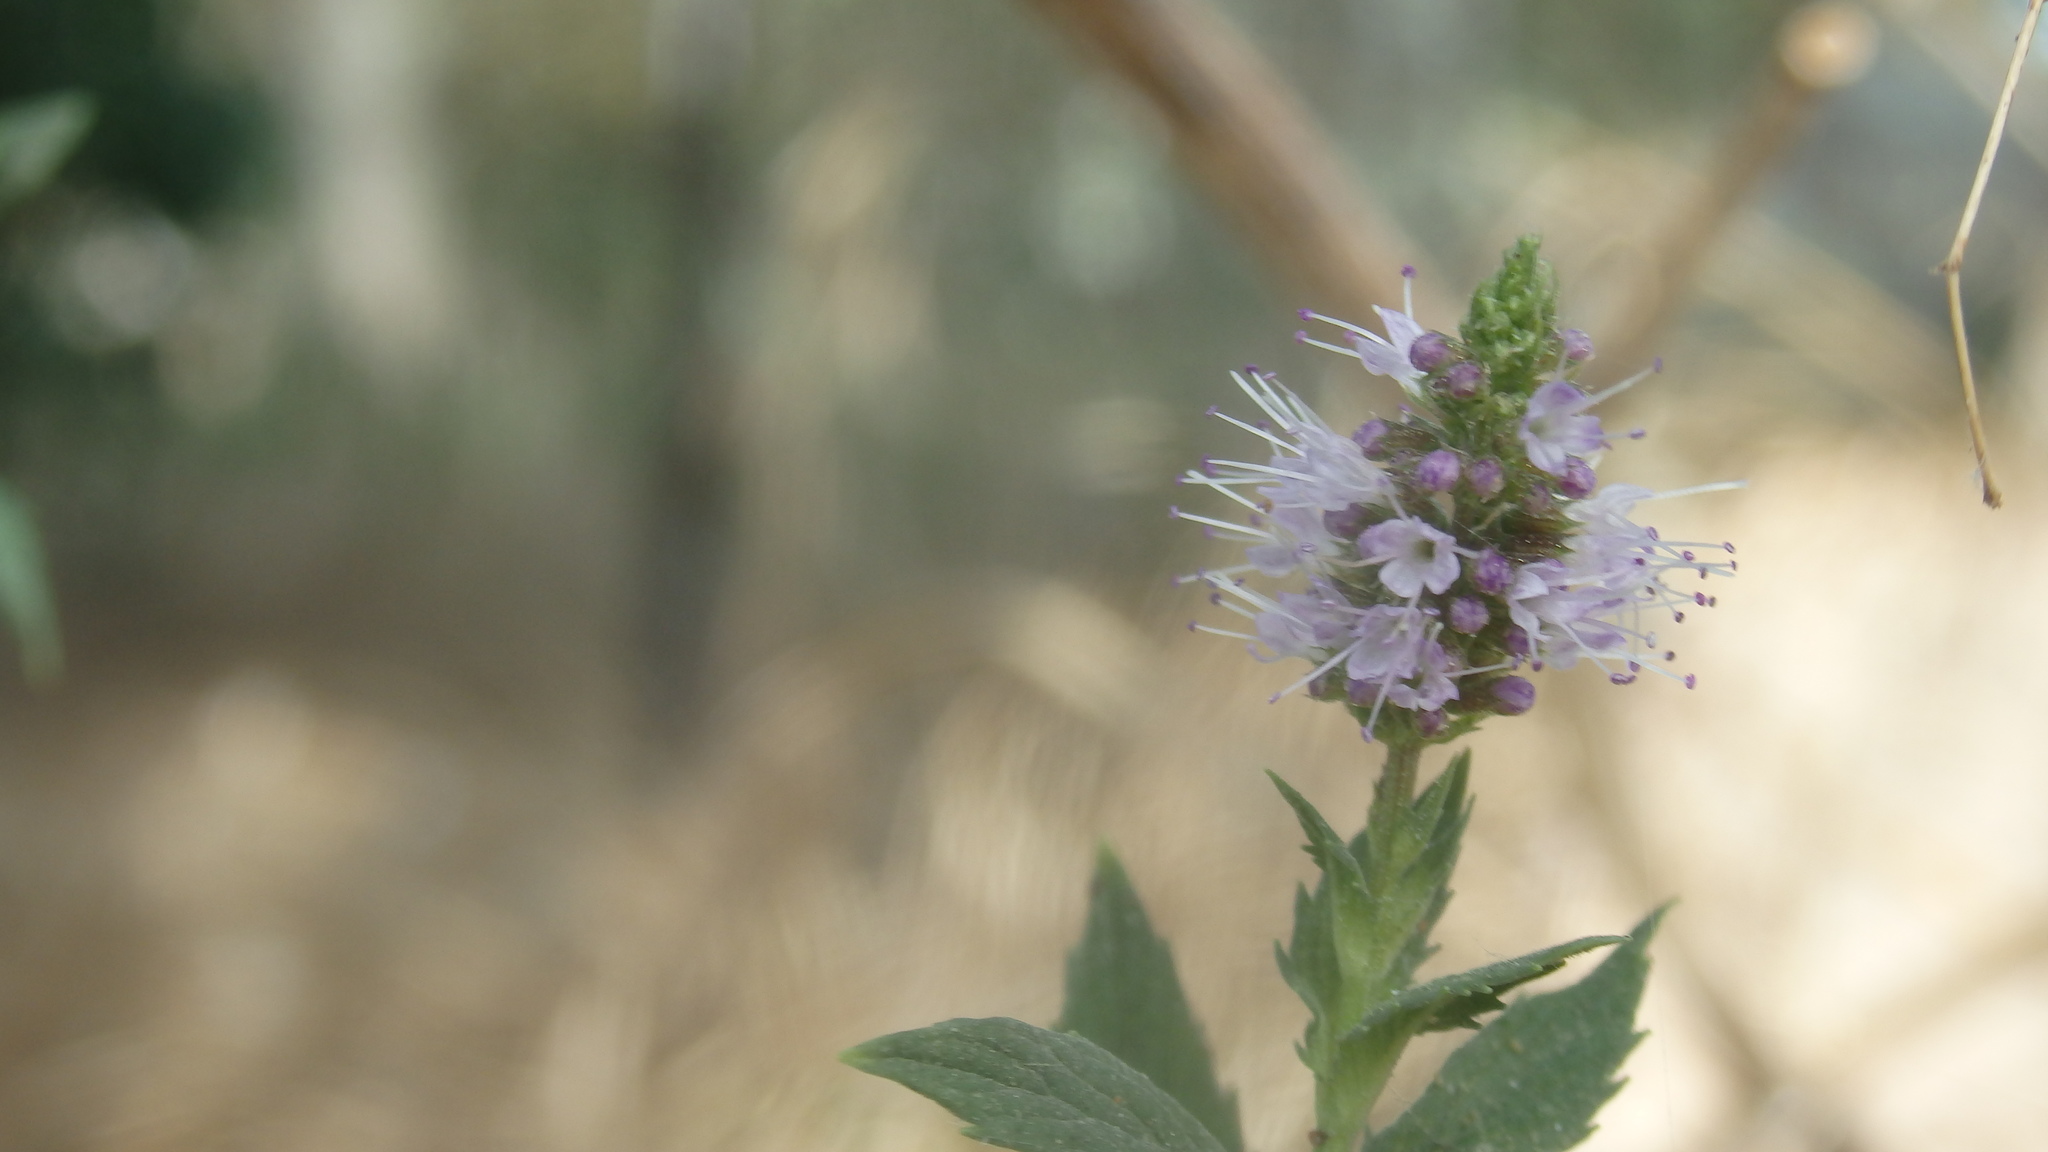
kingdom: Plantae
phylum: Tracheophyta
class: Magnoliopsida
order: Lamiales
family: Lamiaceae
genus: Mentha
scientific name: Mentha piperita
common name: Peppermint
